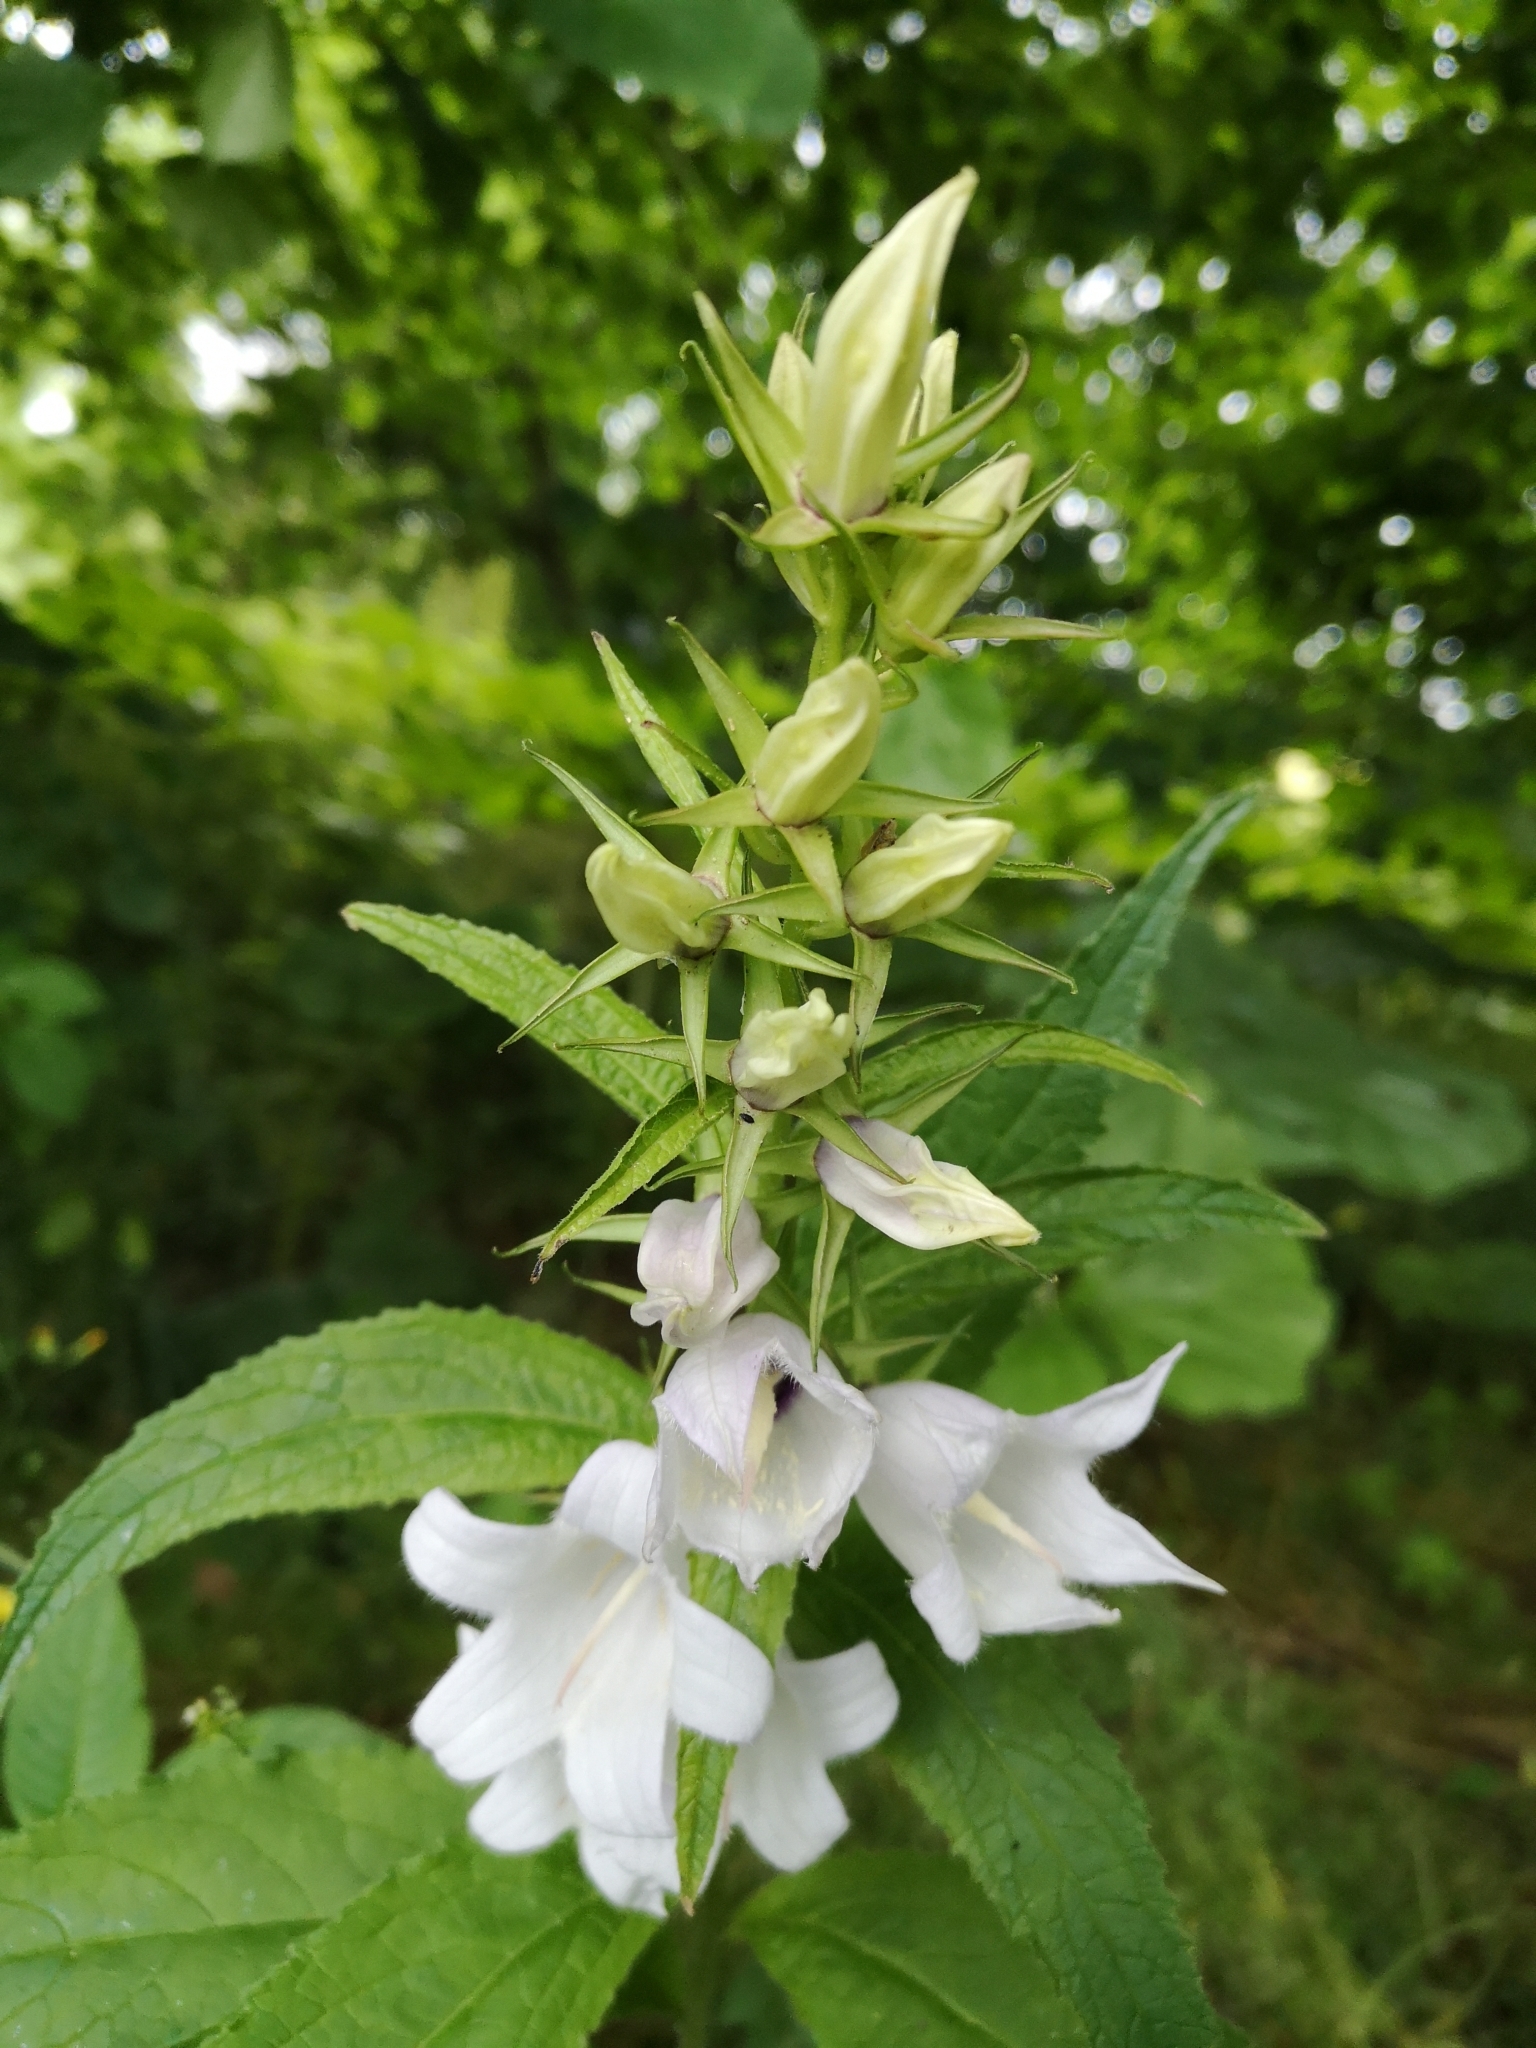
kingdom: Plantae
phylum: Tracheophyta
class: Magnoliopsida
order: Asterales
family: Campanulaceae
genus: Campanula
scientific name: Campanula latifolia
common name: Giant bellflower
